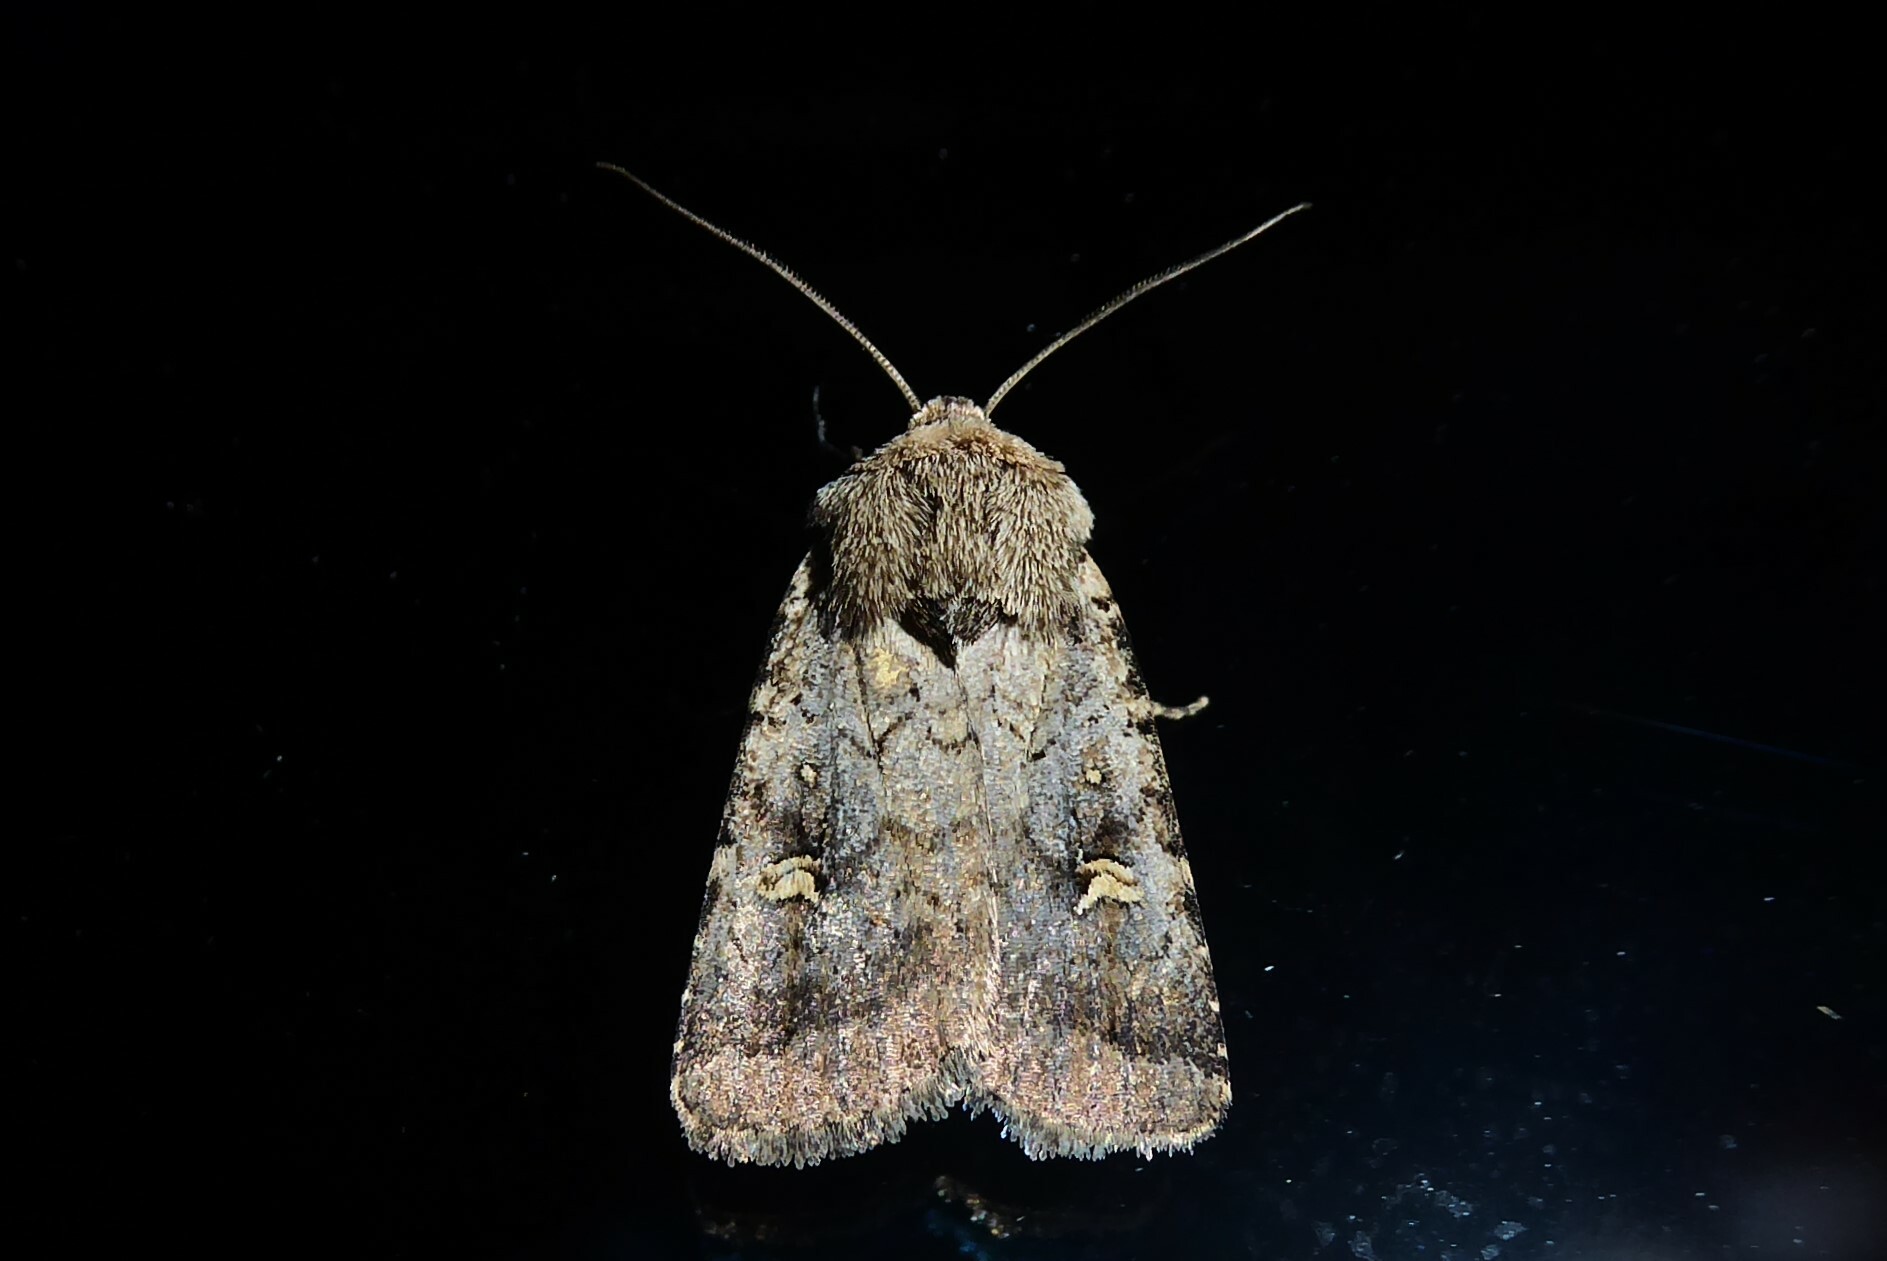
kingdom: Animalia
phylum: Arthropoda
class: Insecta
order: Lepidoptera
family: Noctuidae
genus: Proteuxoa
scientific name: Proteuxoa tetronycha
